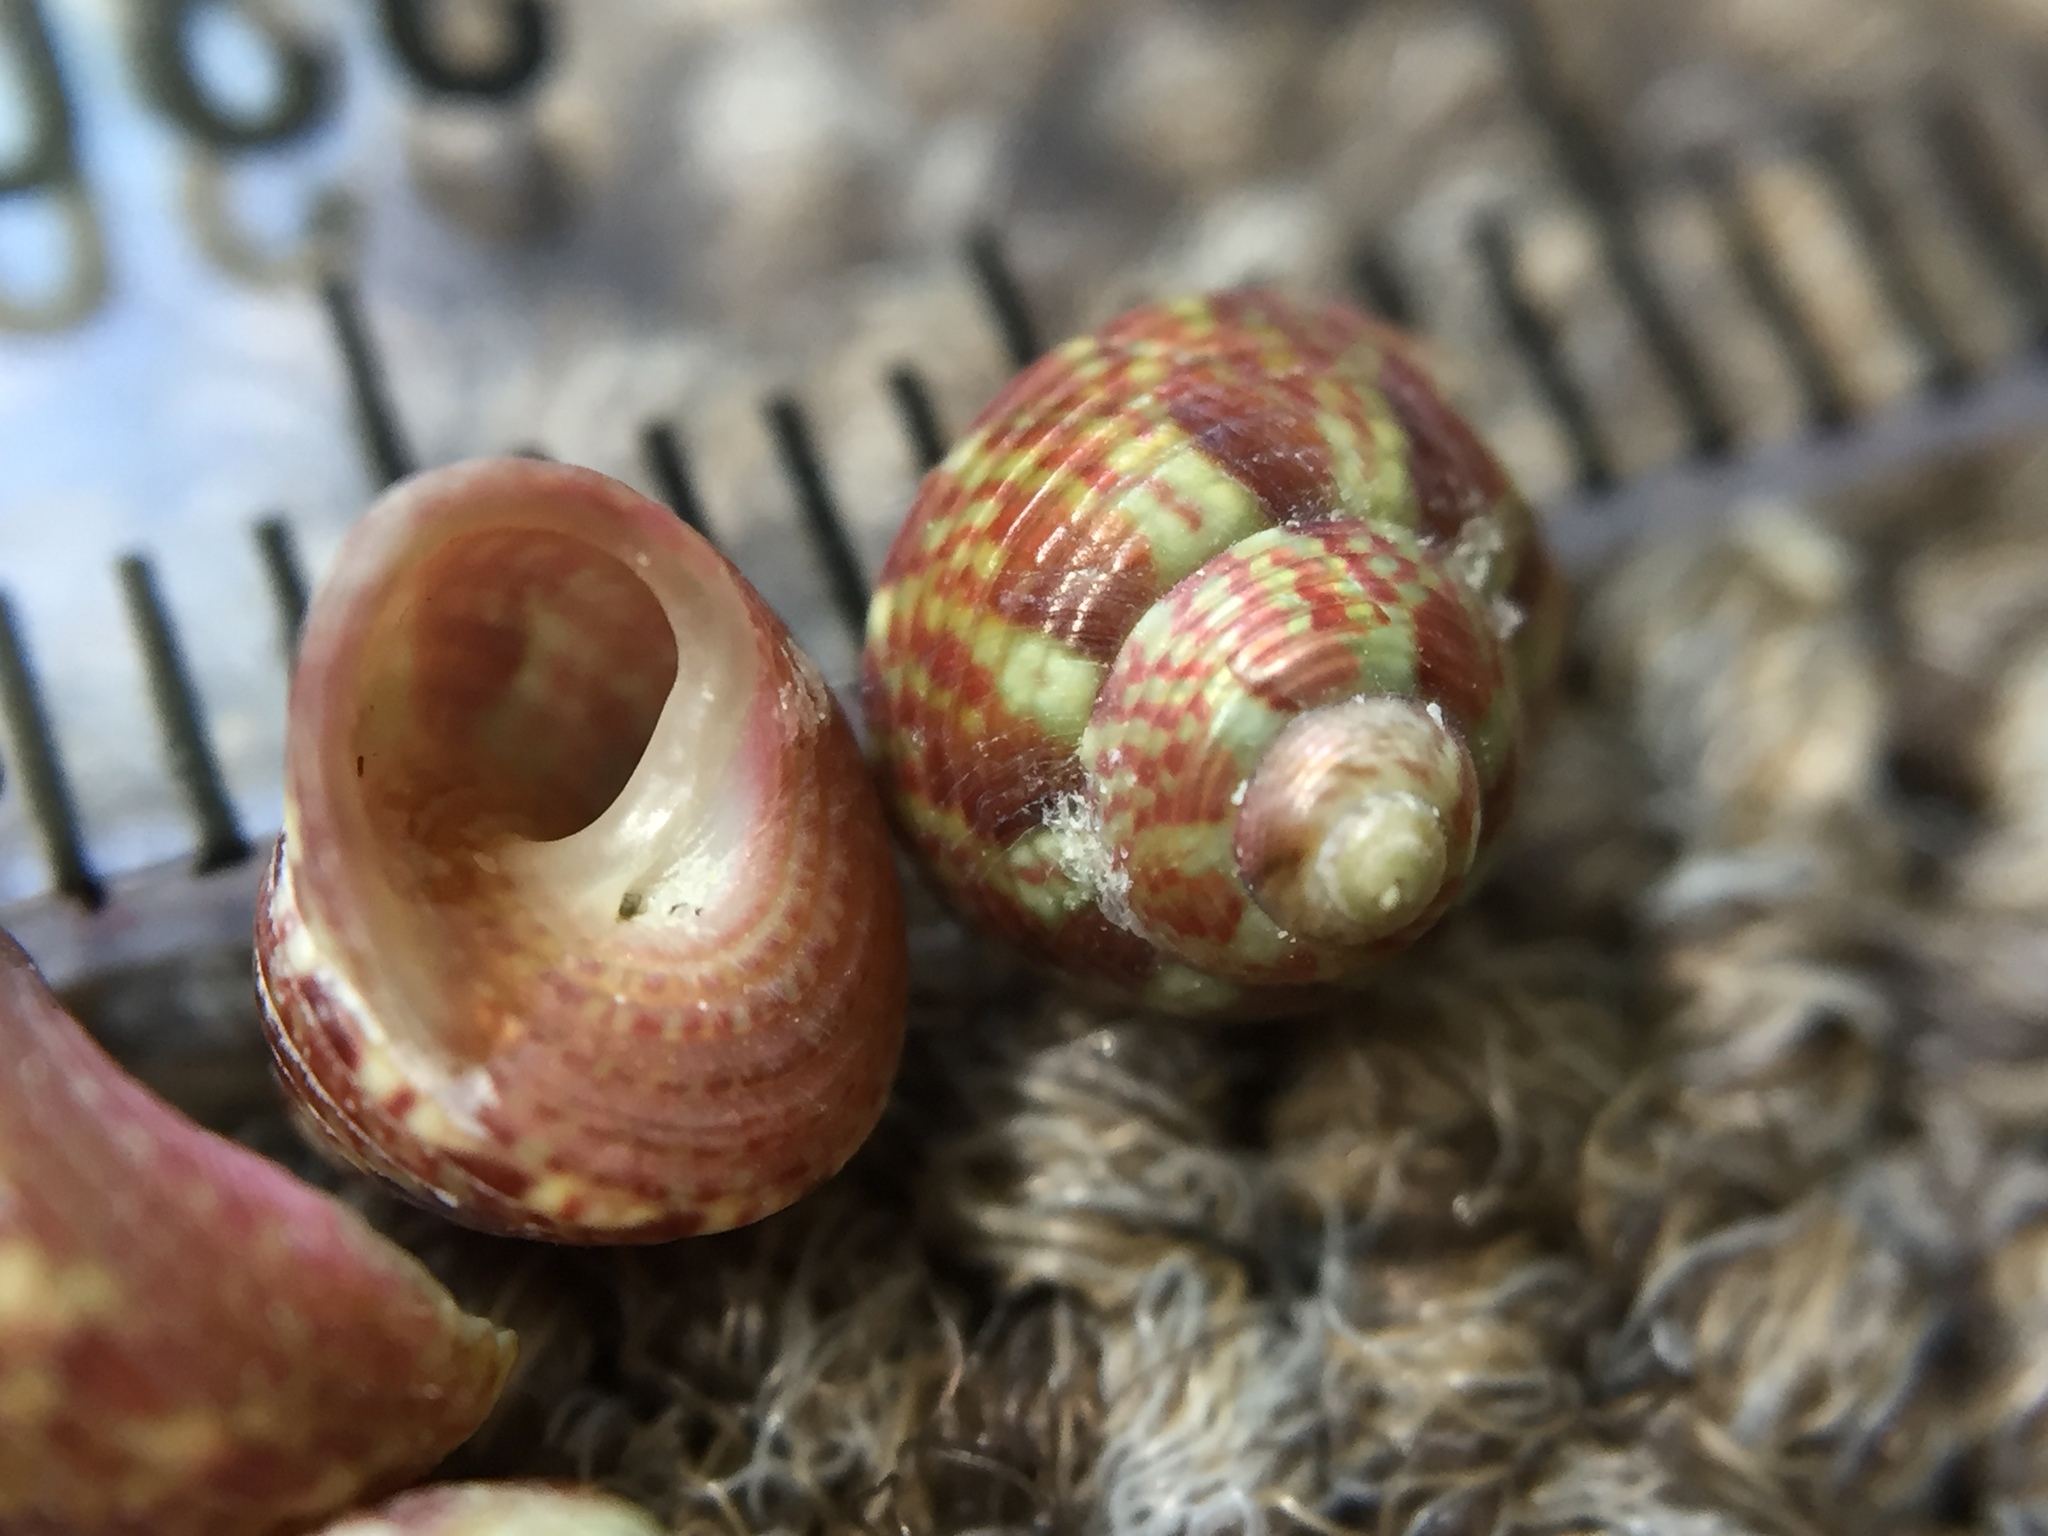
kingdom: Animalia
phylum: Mollusca
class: Gastropoda
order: Trochida
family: Trochidae
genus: Micrelenchus
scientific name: Micrelenchus sanguineus
